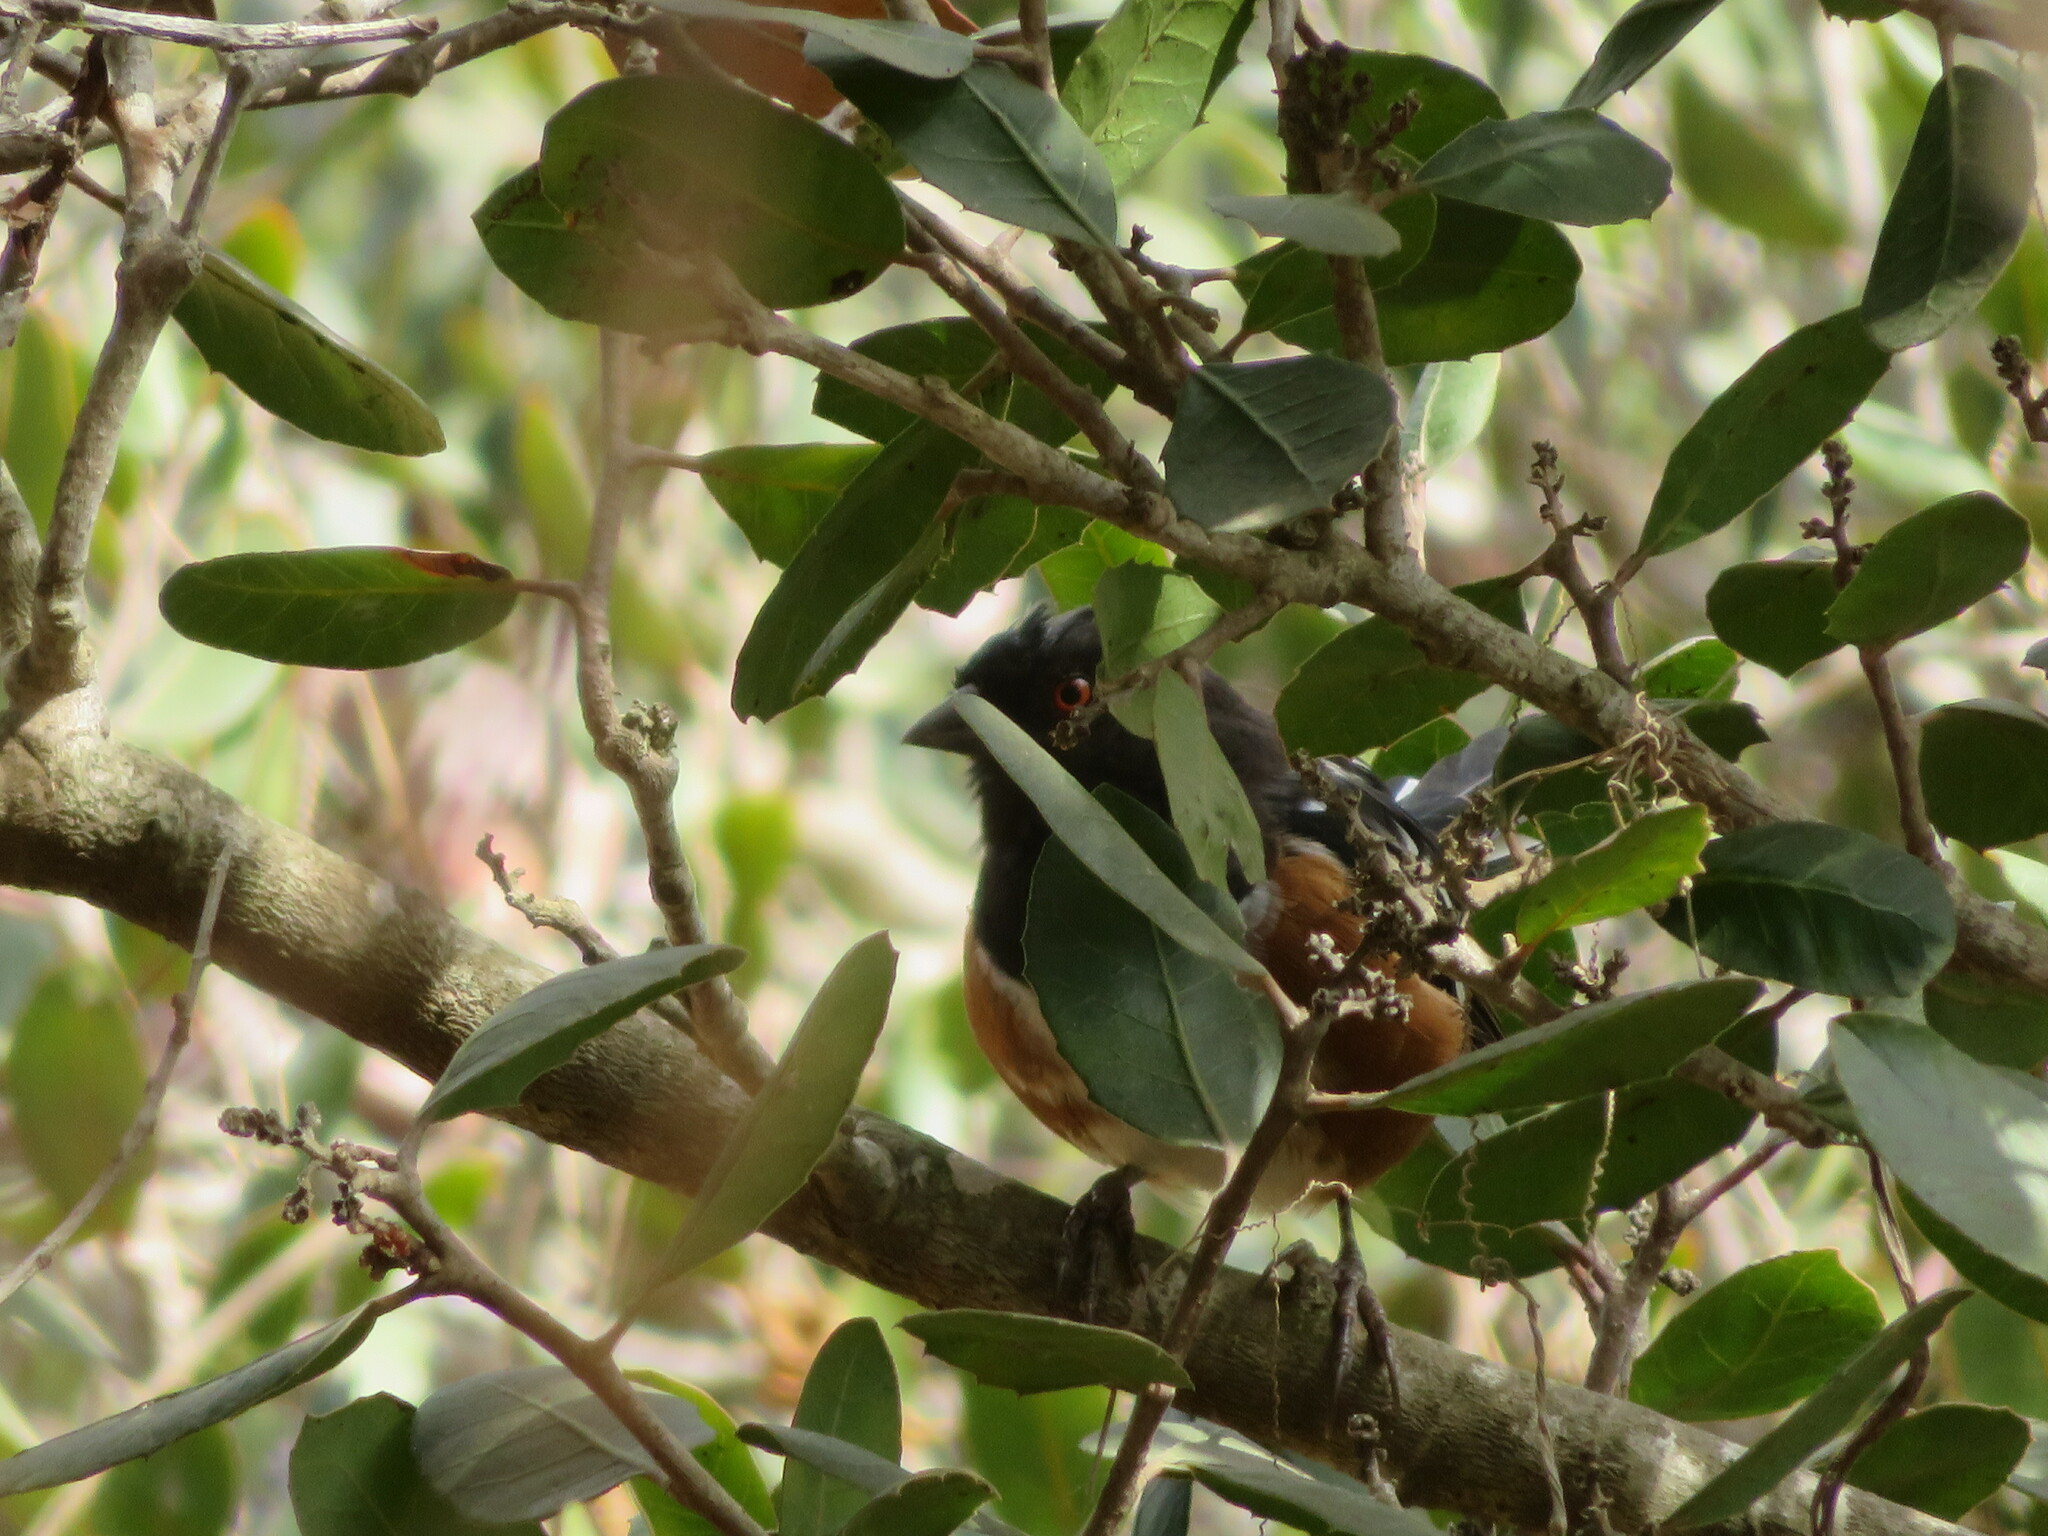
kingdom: Animalia
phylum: Chordata
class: Aves
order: Passeriformes
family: Passerellidae
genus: Pipilo
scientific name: Pipilo maculatus
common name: Spotted towhee
